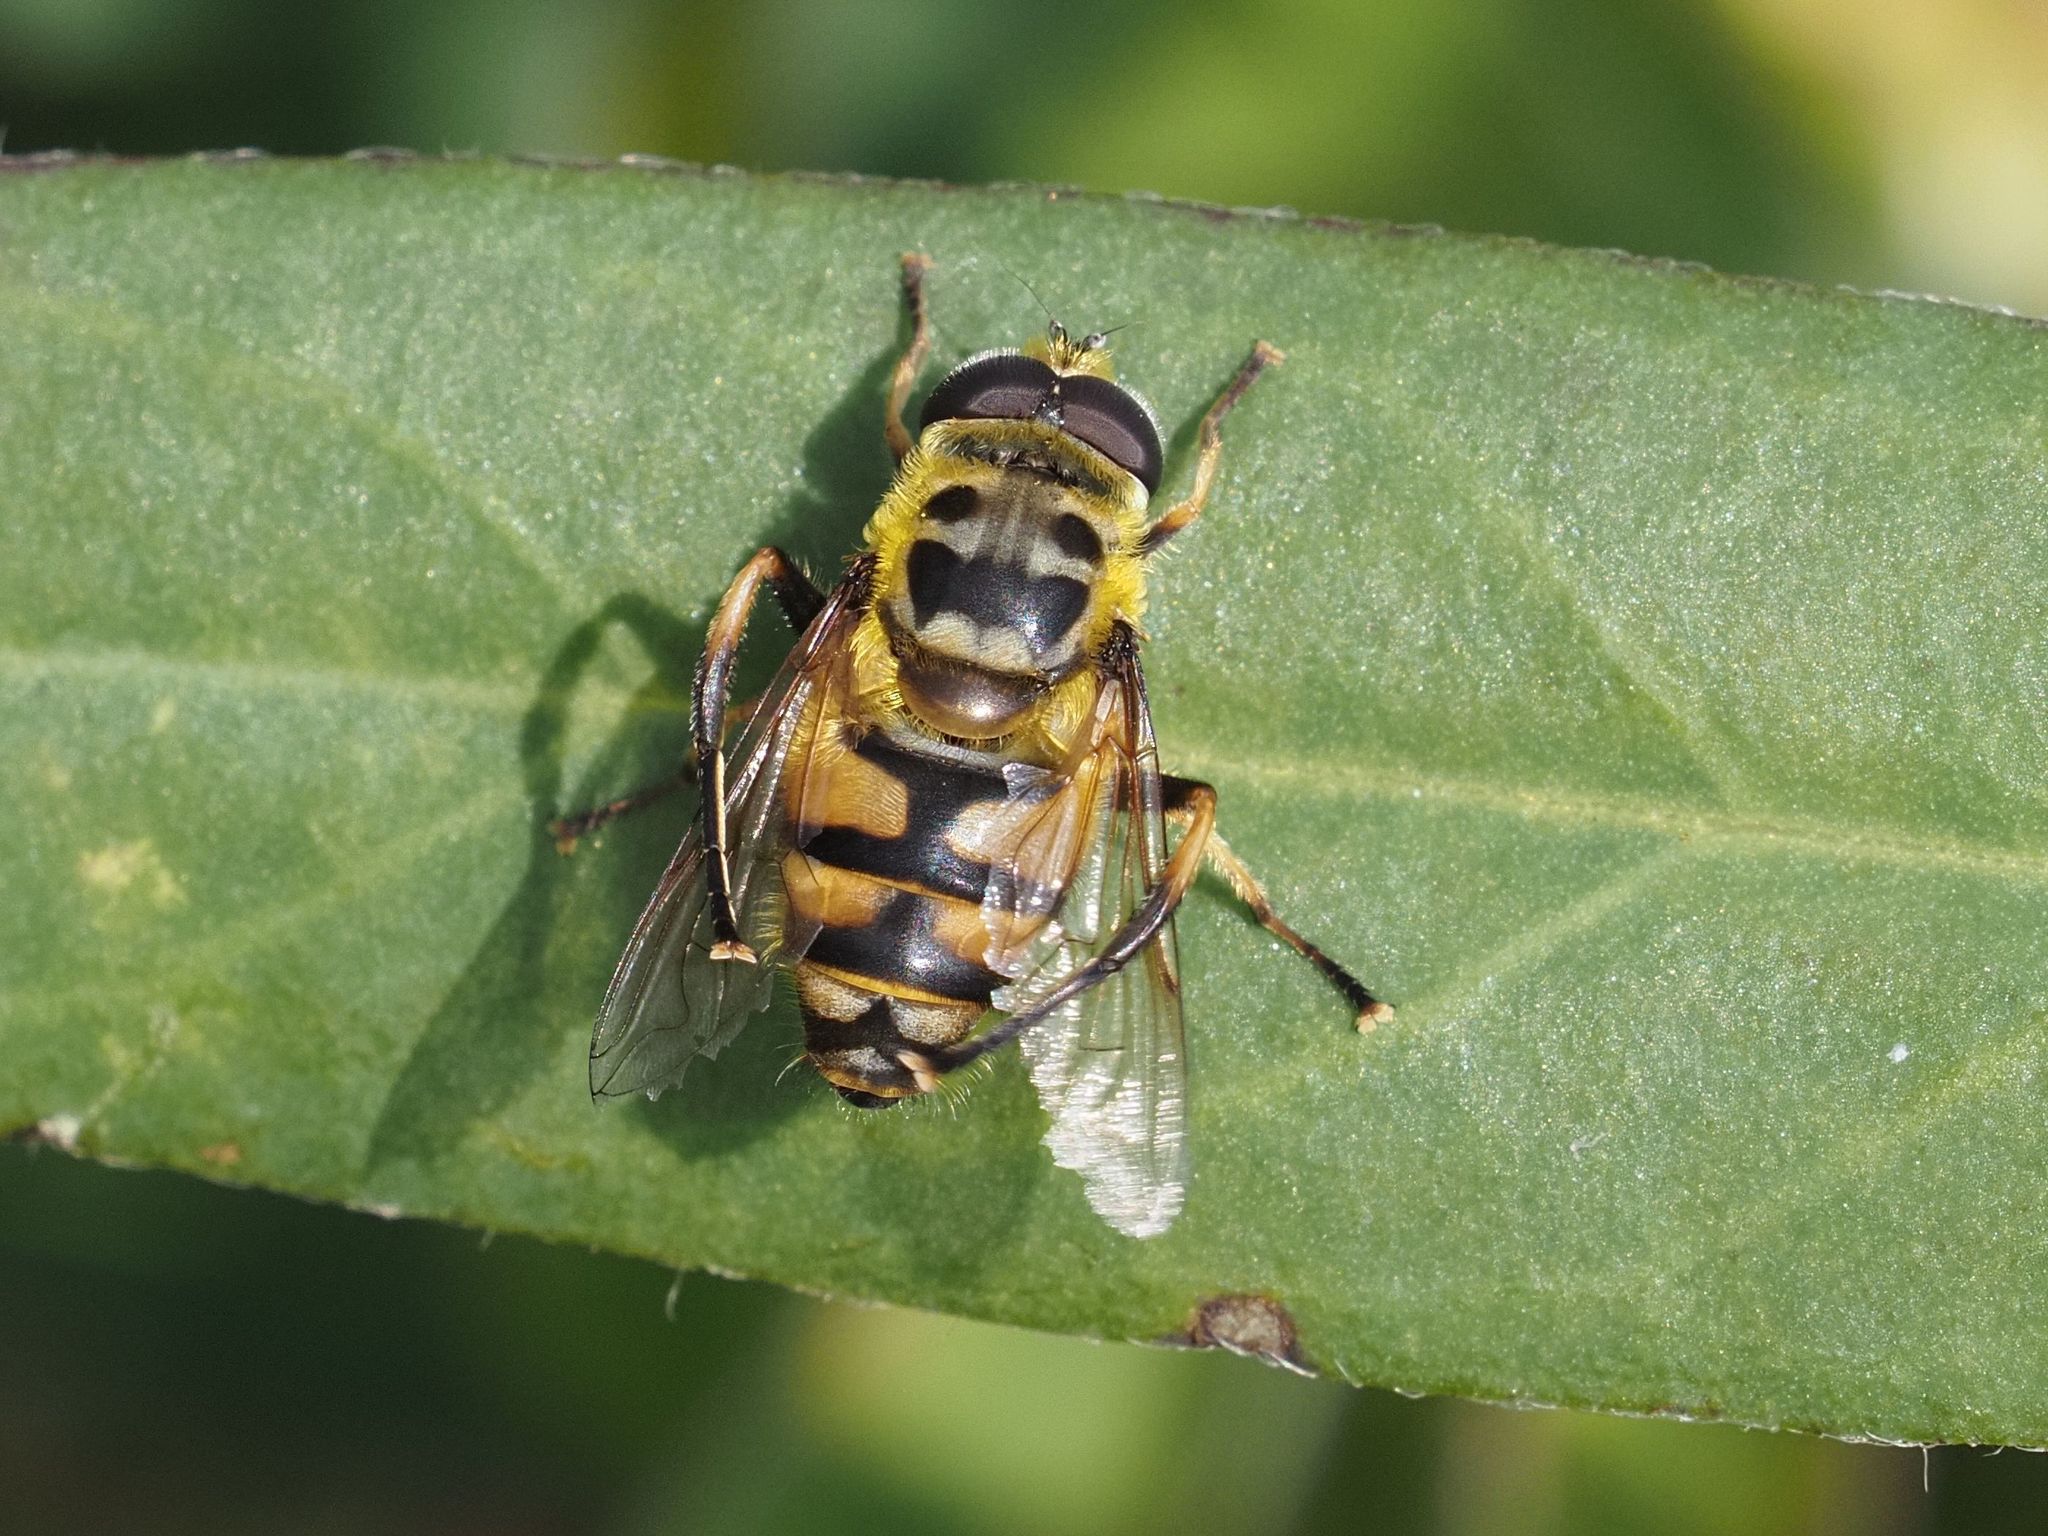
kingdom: Animalia
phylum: Arthropoda
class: Insecta
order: Diptera
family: Syrphidae
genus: Myathropa
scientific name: Myathropa florea
